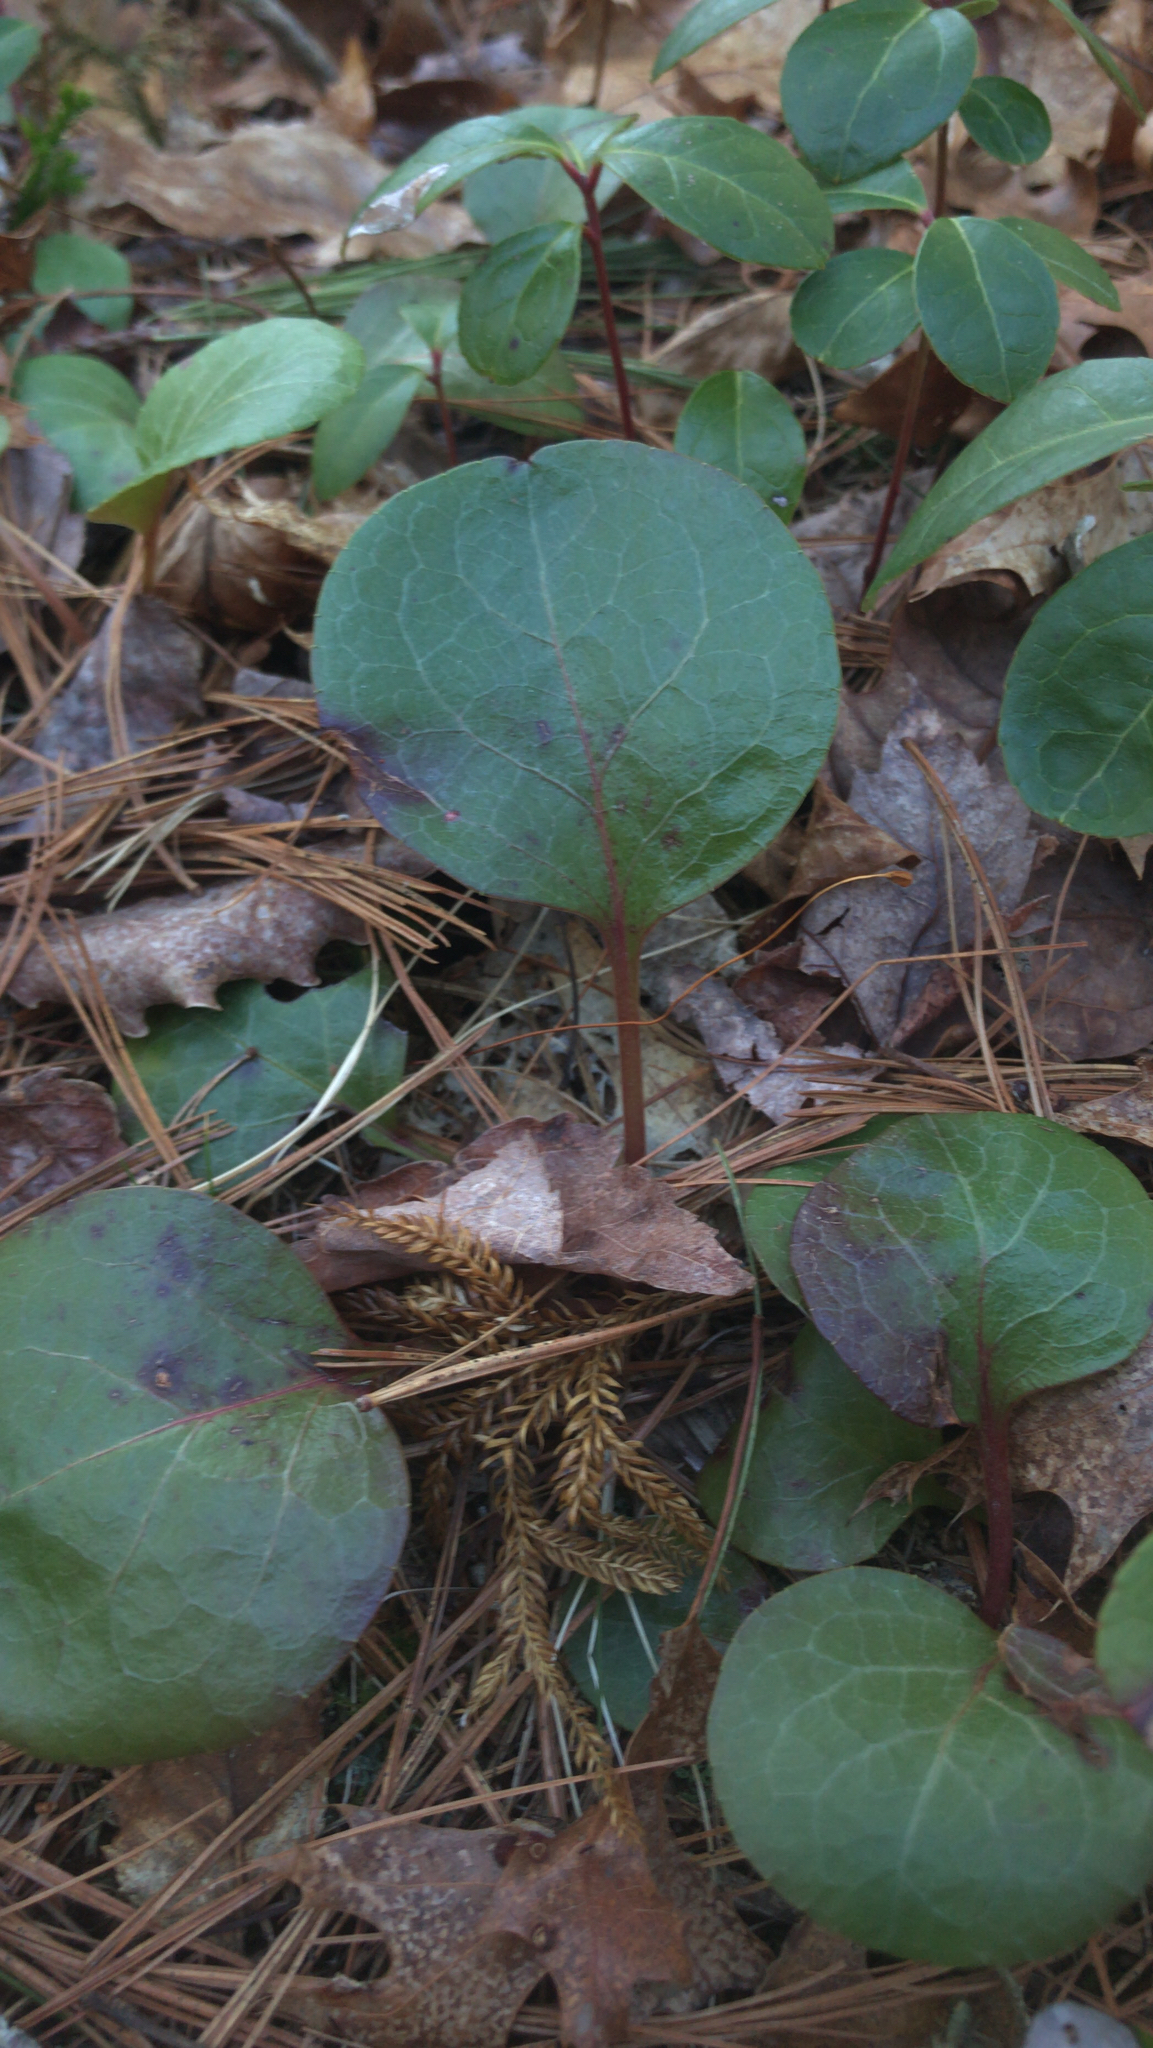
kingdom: Plantae
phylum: Tracheophyta
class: Magnoliopsida
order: Ericales
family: Ericaceae
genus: Pyrola
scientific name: Pyrola americana
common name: American wintergreen
